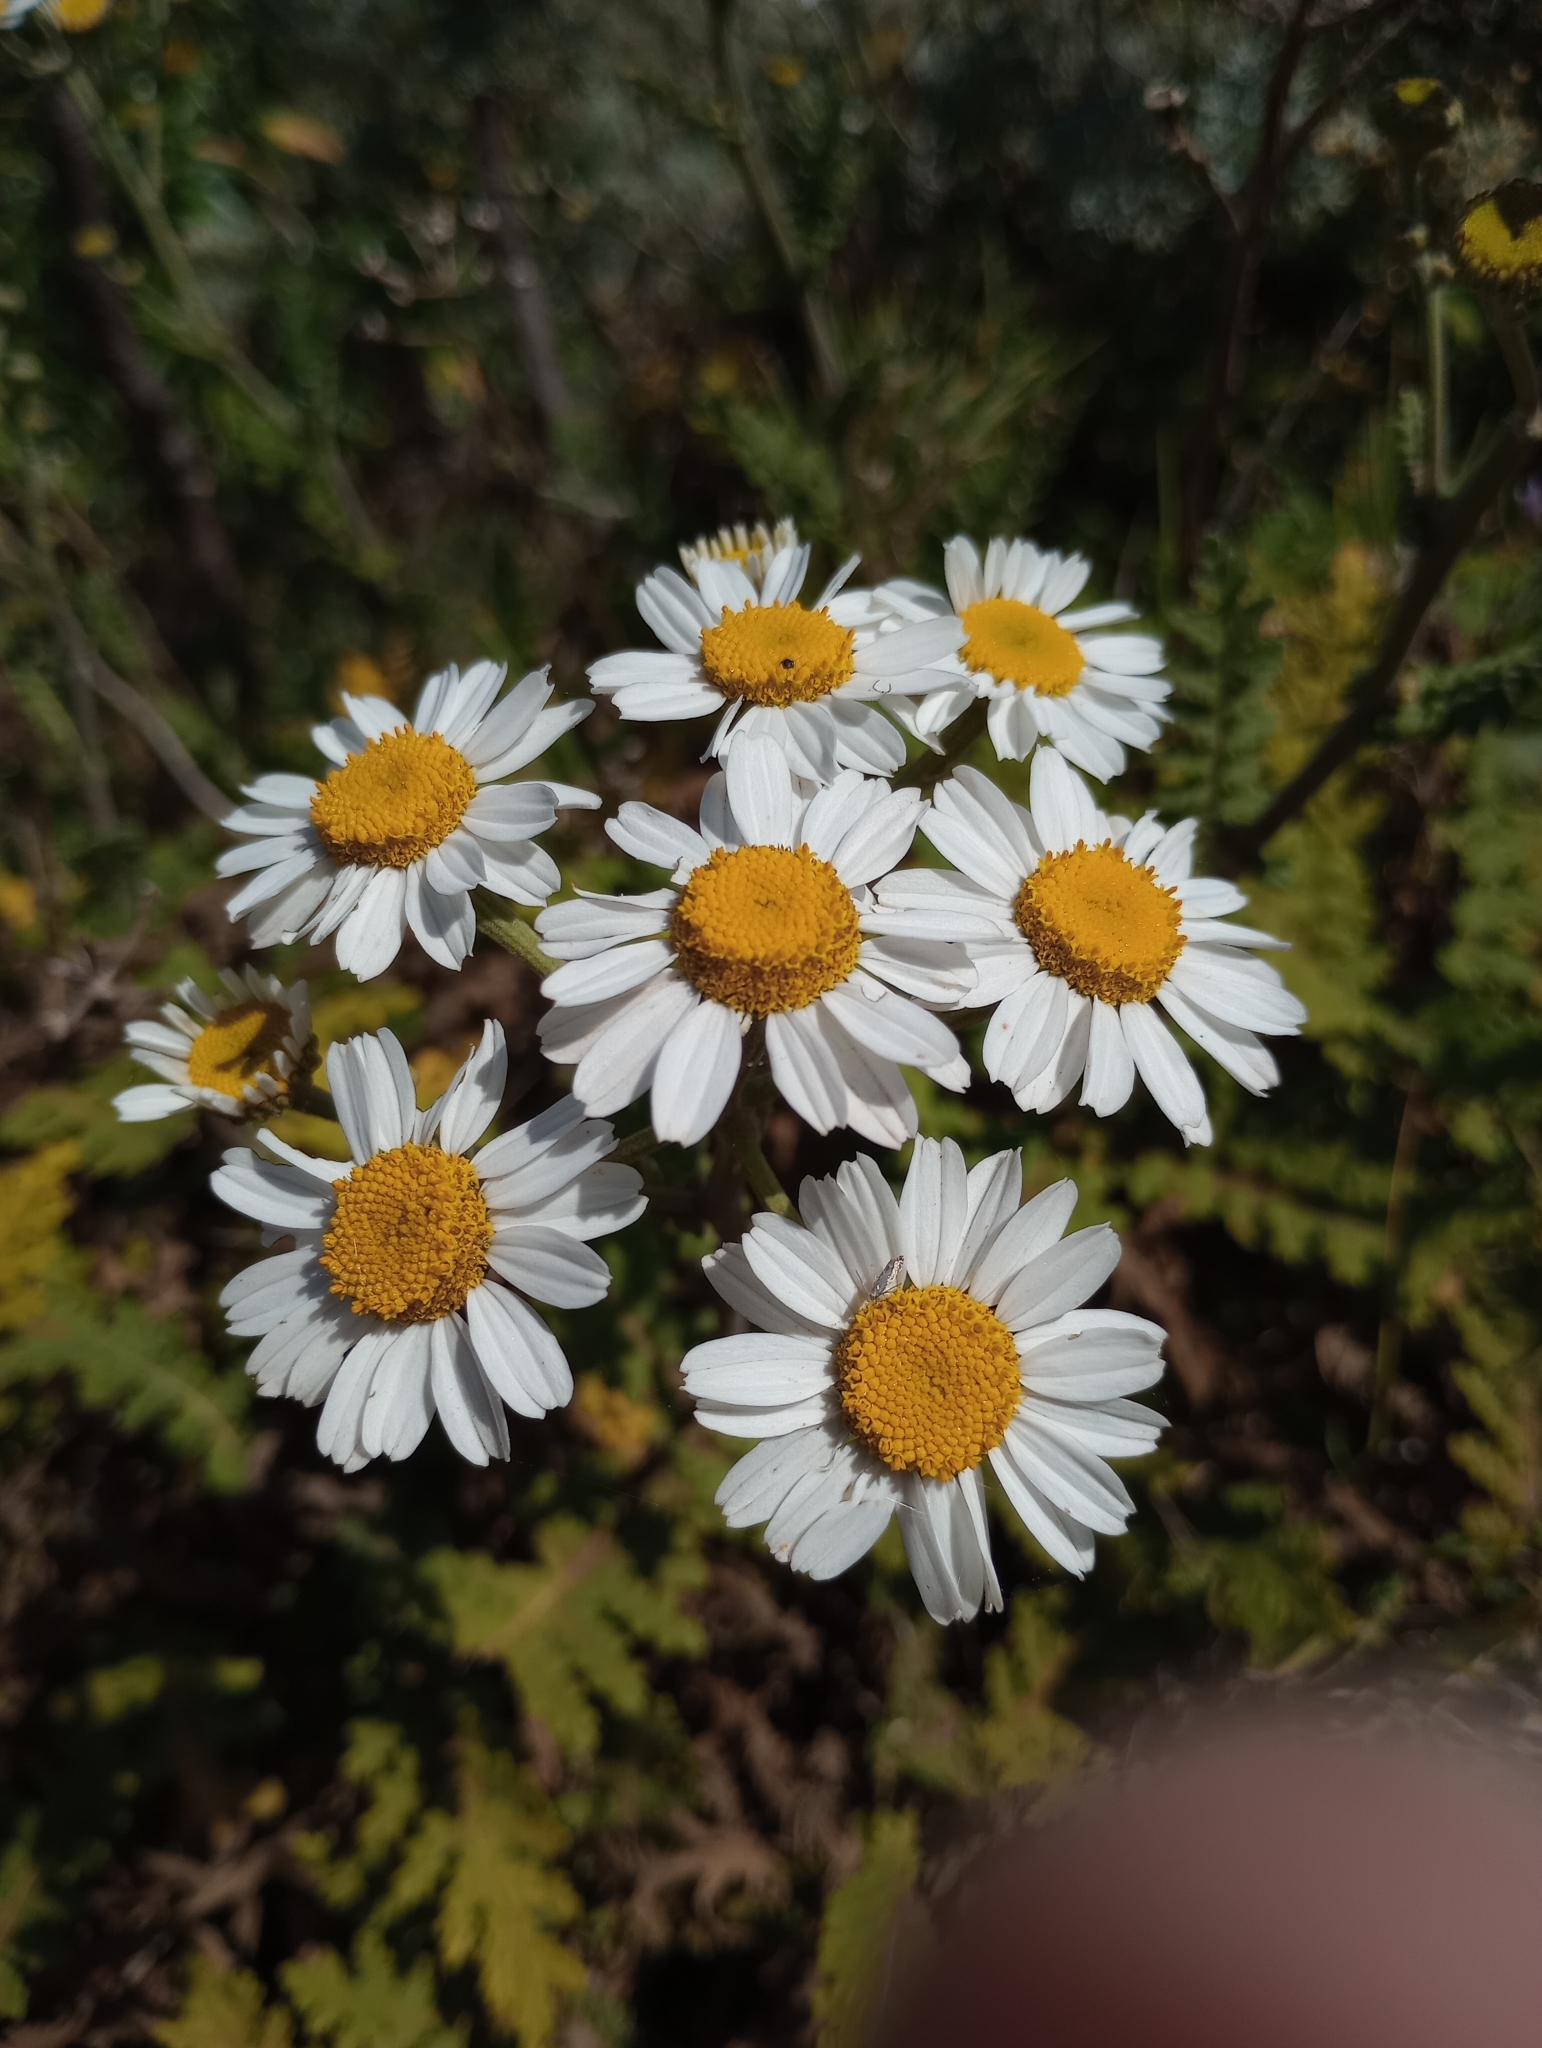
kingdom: Plantae
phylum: Tracheophyta
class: Magnoliopsida
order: Asterales
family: Asteraceae
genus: Gonospermum
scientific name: Gonospermum revolutum
